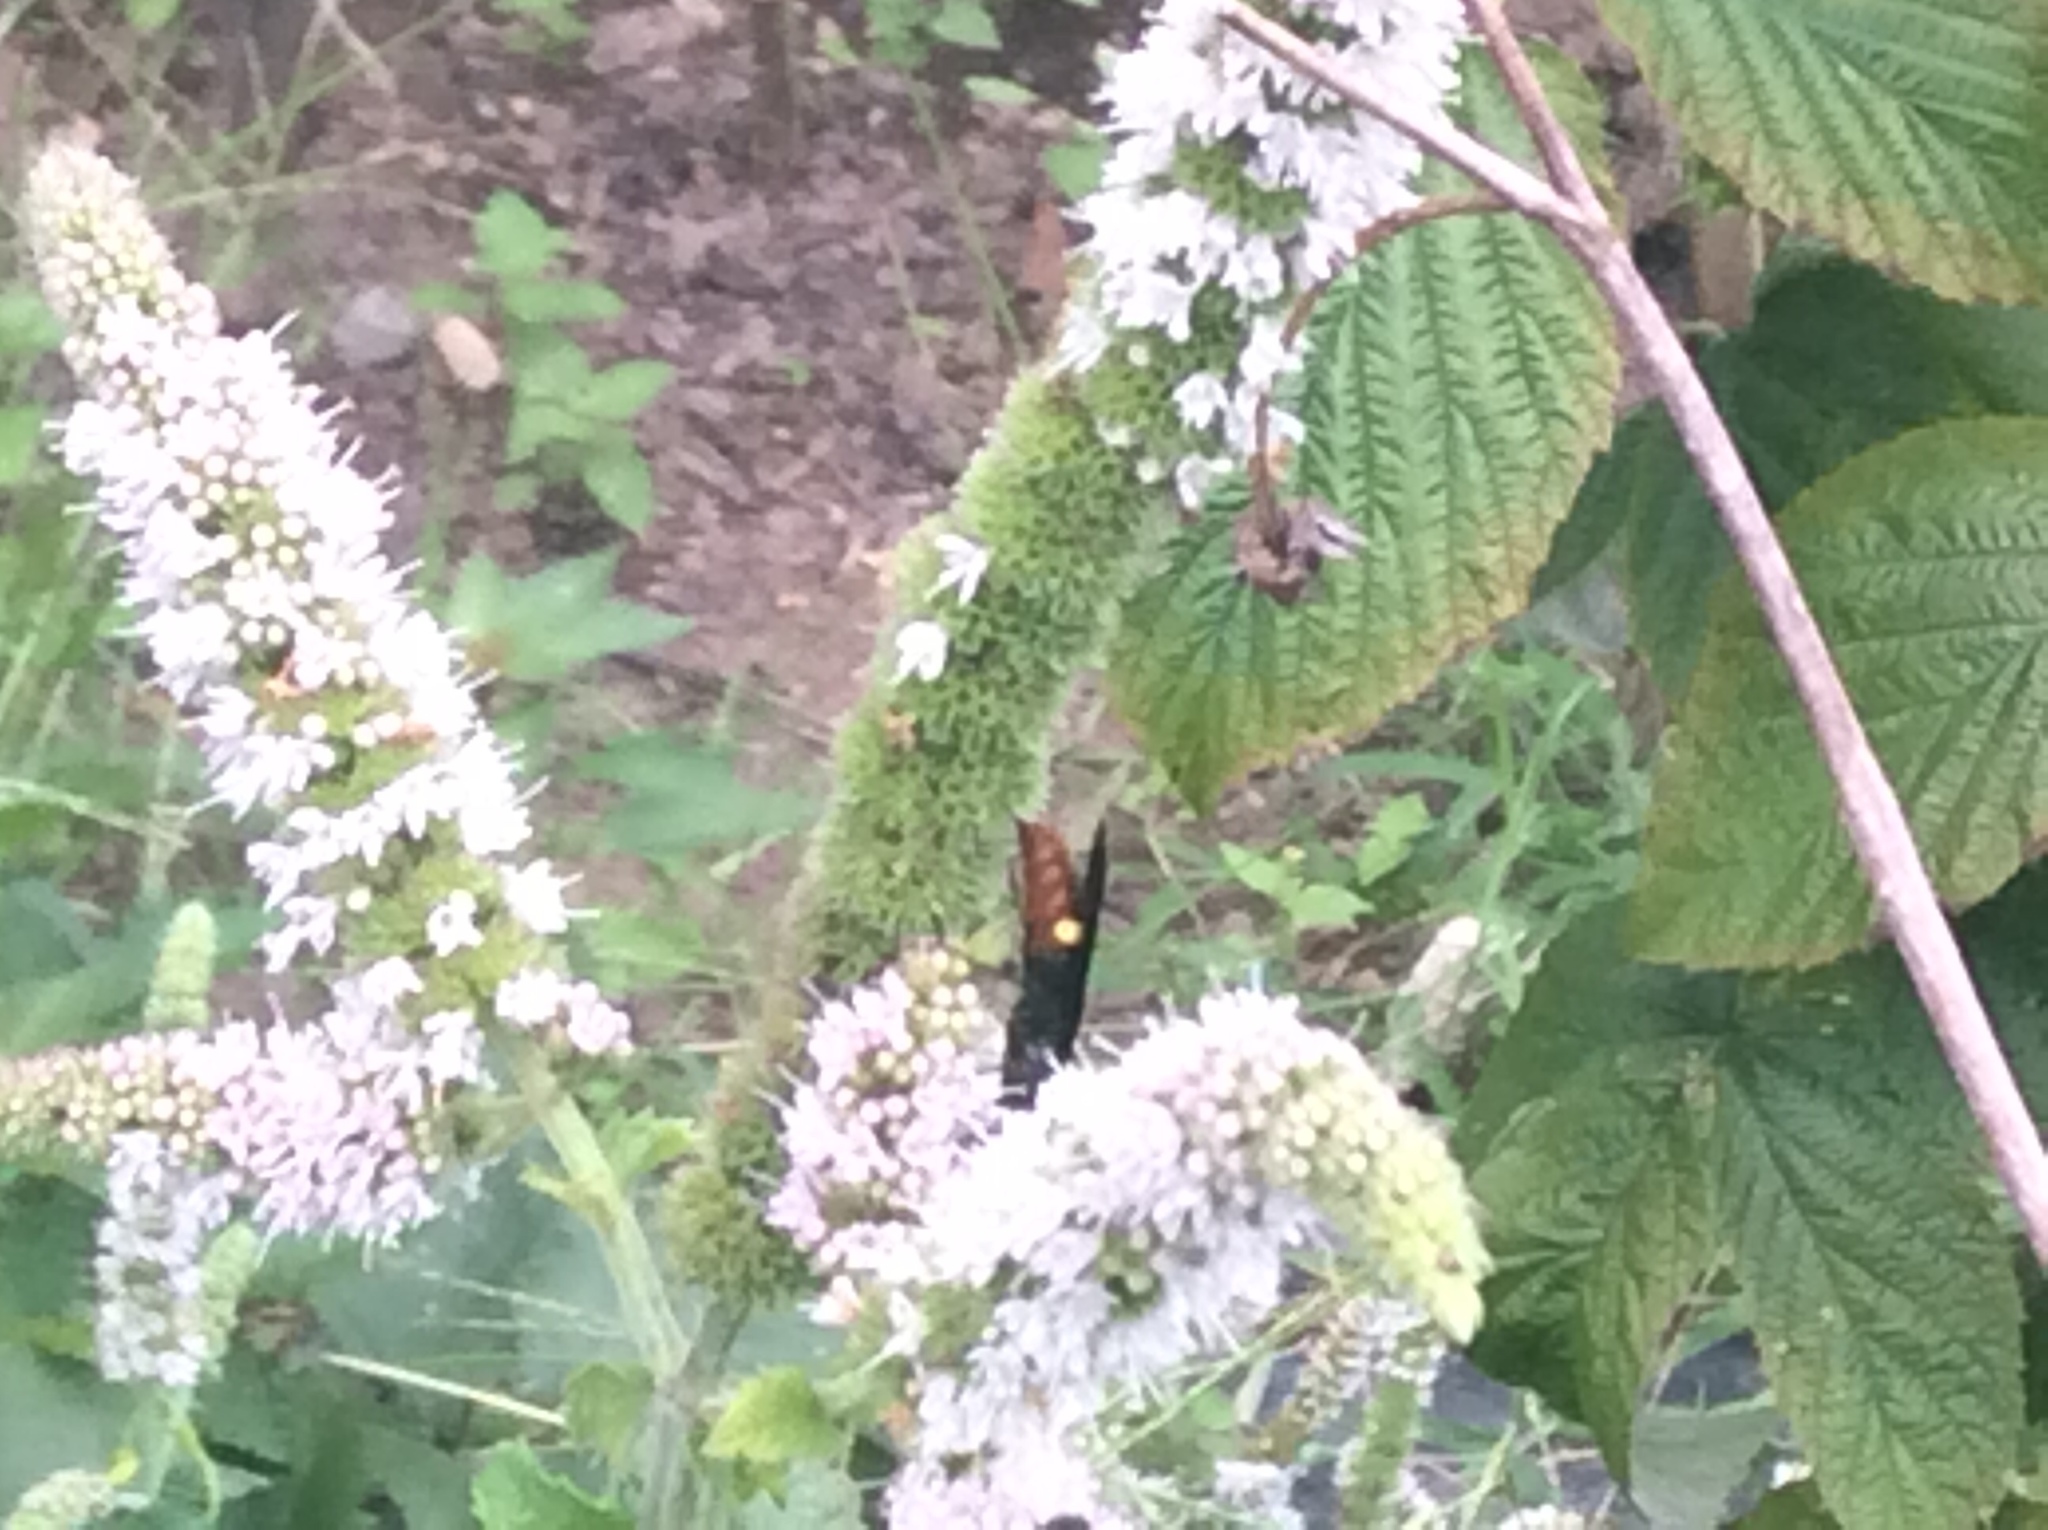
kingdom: Animalia
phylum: Arthropoda
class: Insecta
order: Hymenoptera
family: Scoliidae
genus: Scolia
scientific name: Scolia dubia
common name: Blue-winged scoliid wasp
